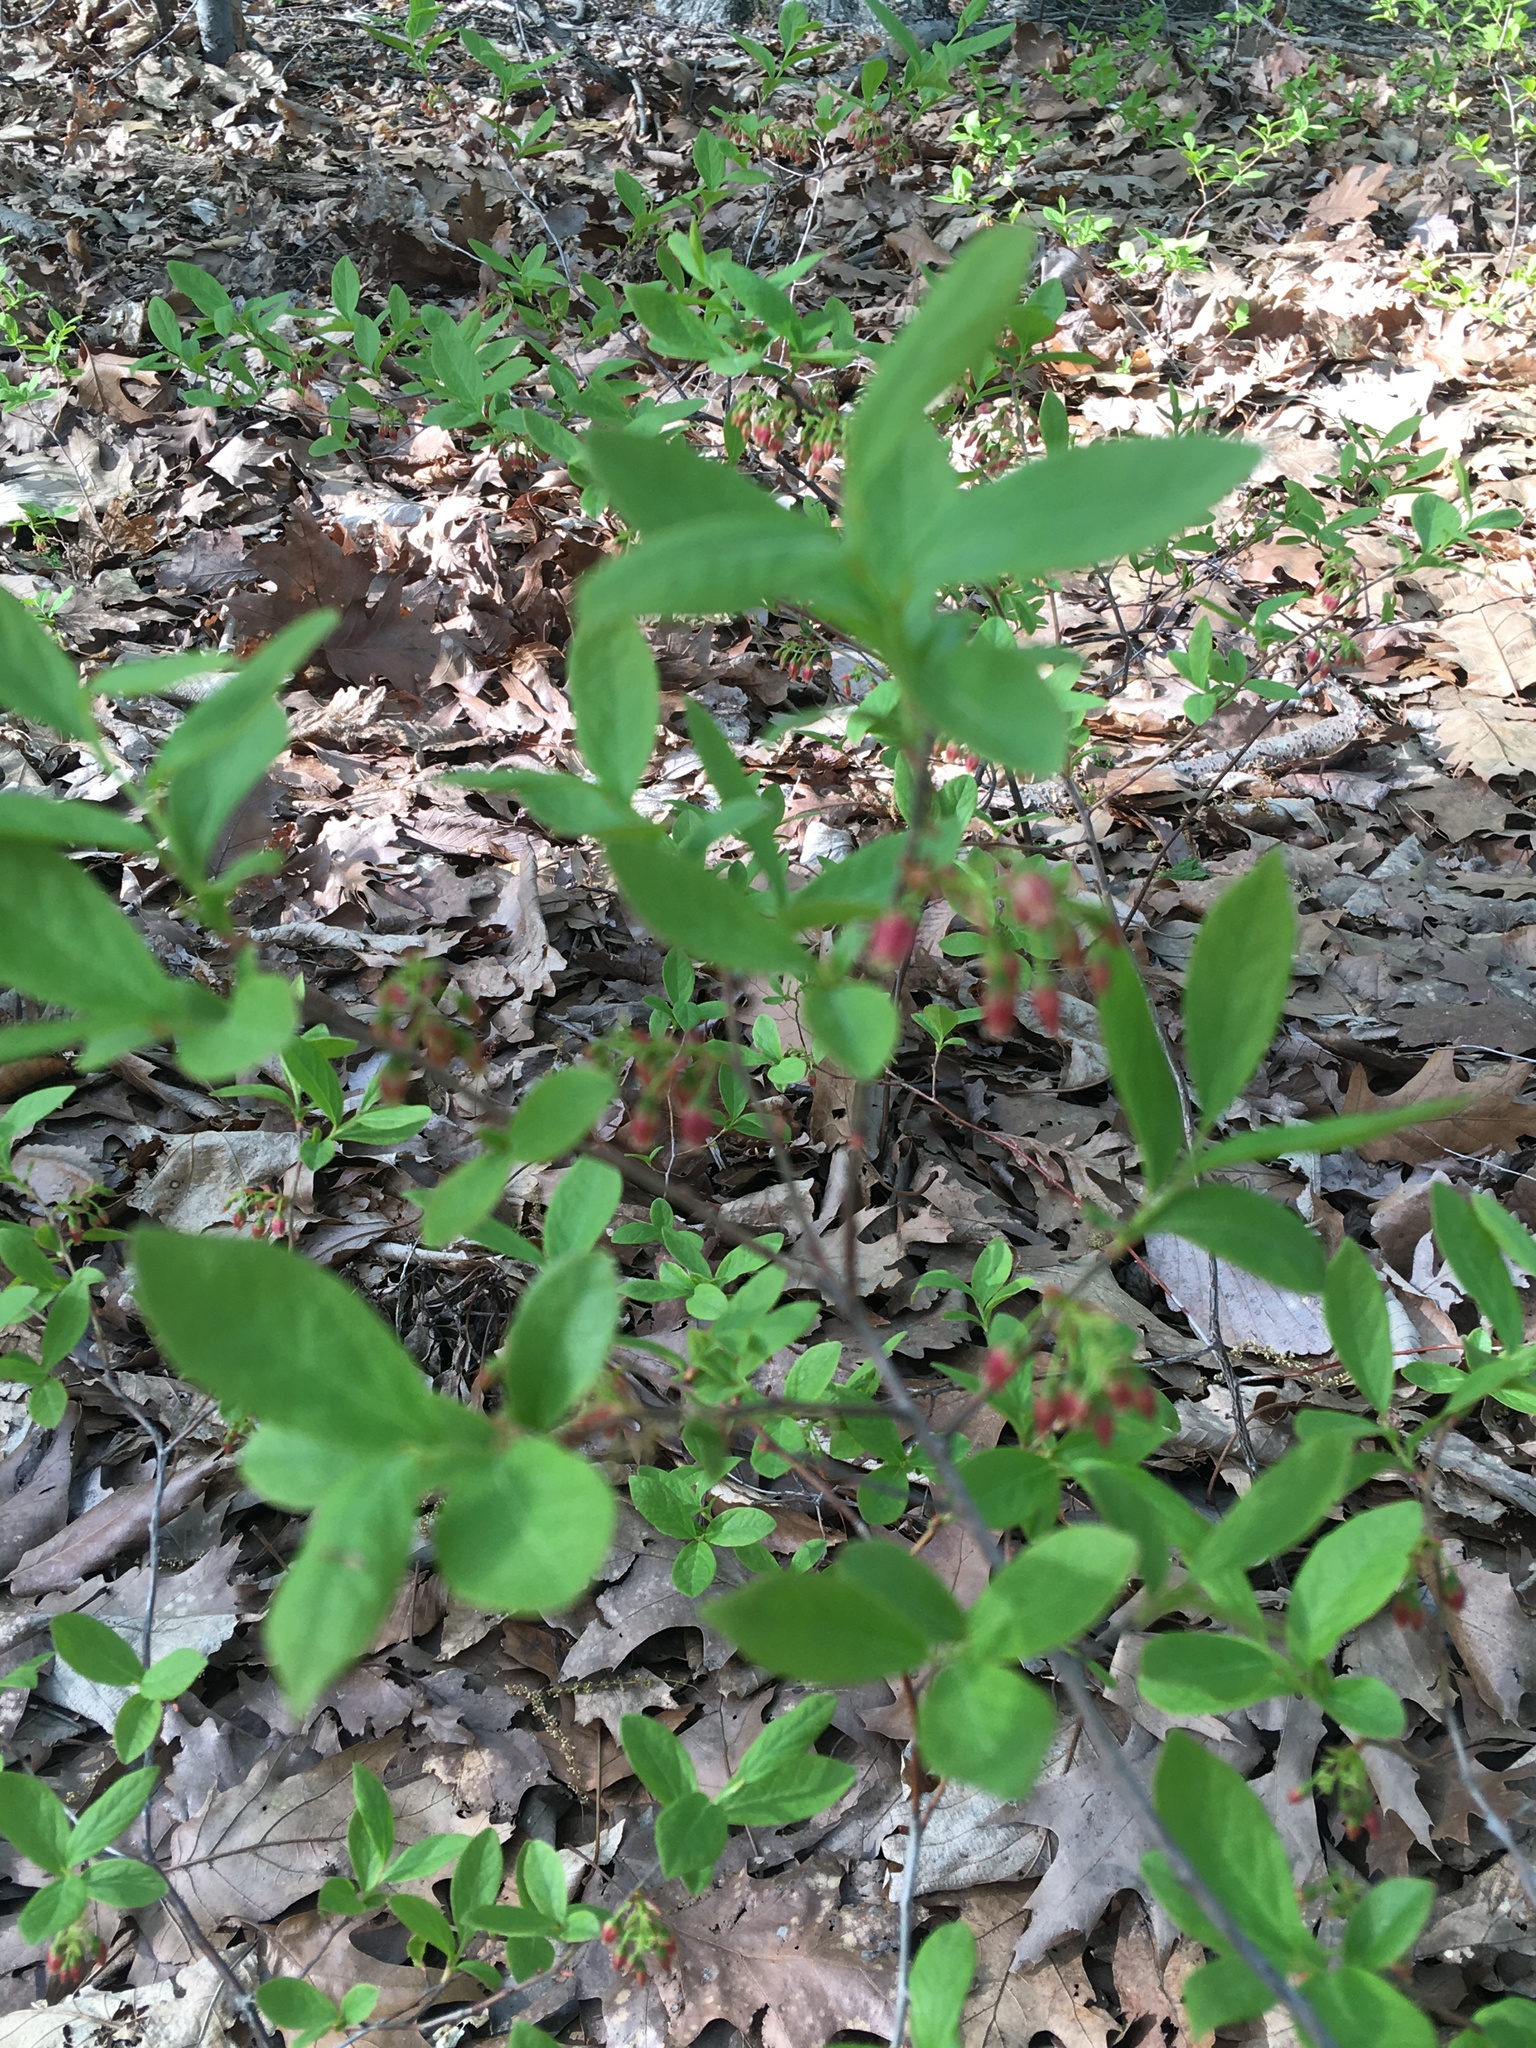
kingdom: Plantae
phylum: Tracheophyta
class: Magnoliopsida
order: Ericales
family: Ericaceae
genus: Gaylussacia
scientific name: Gaylussacia baccata
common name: Black huckleberry
